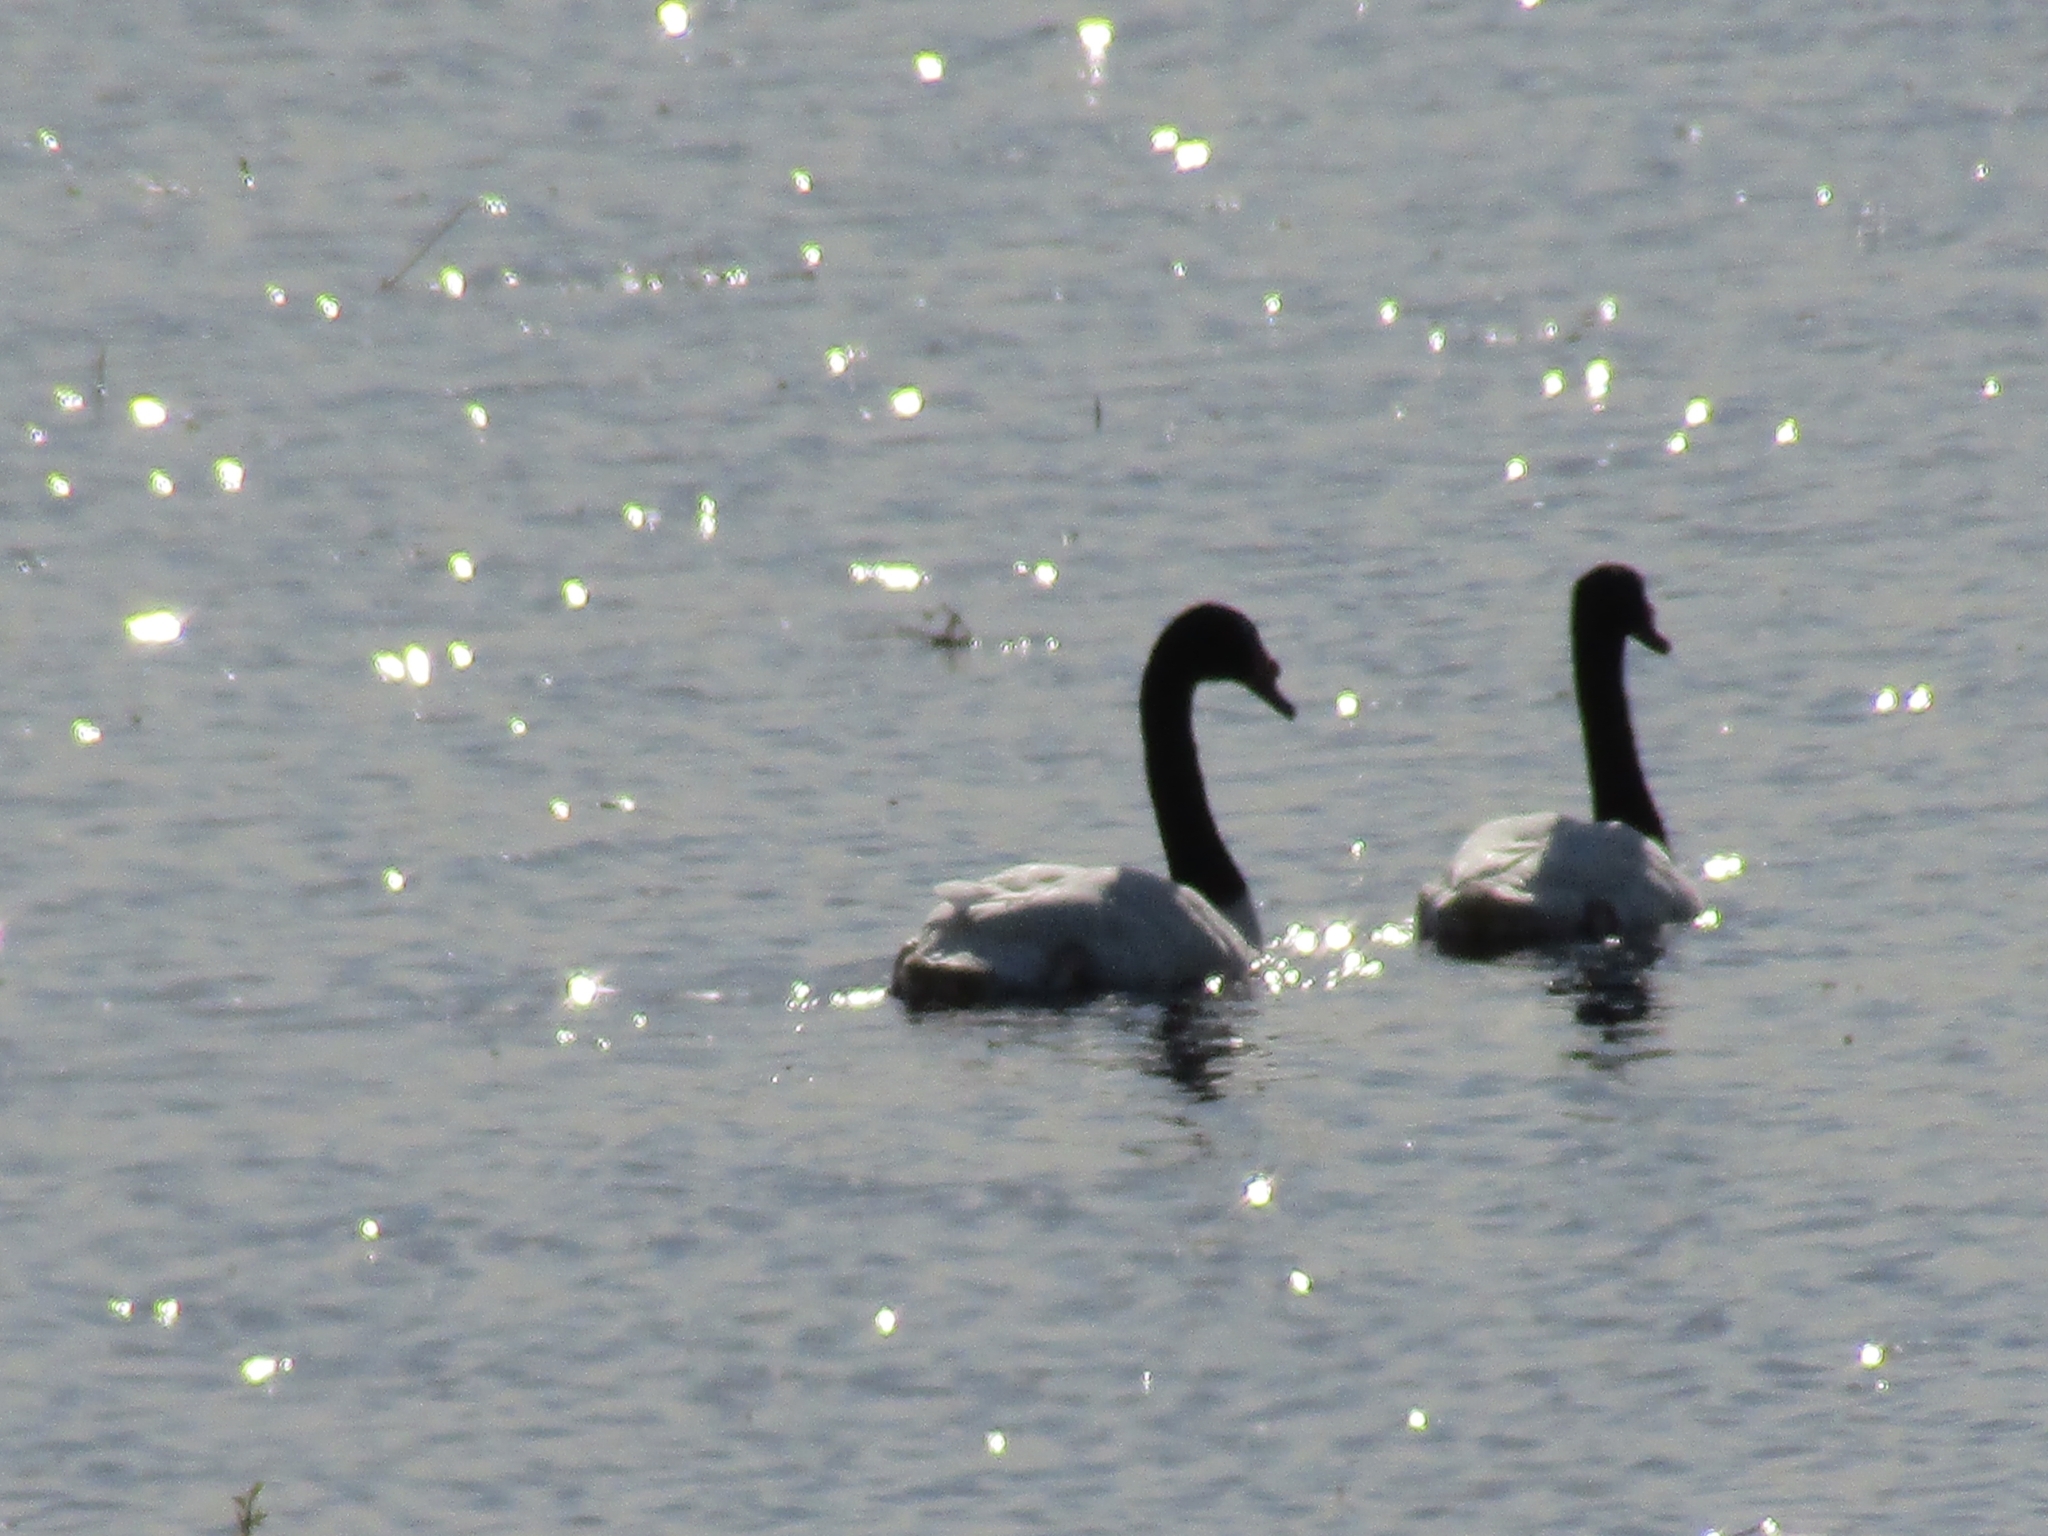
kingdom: Animalia
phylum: Chordata
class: Aves
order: Anseriformes
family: Anatidae
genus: Cygnus
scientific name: Cygnus melancoryphus
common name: Black-necked swan
